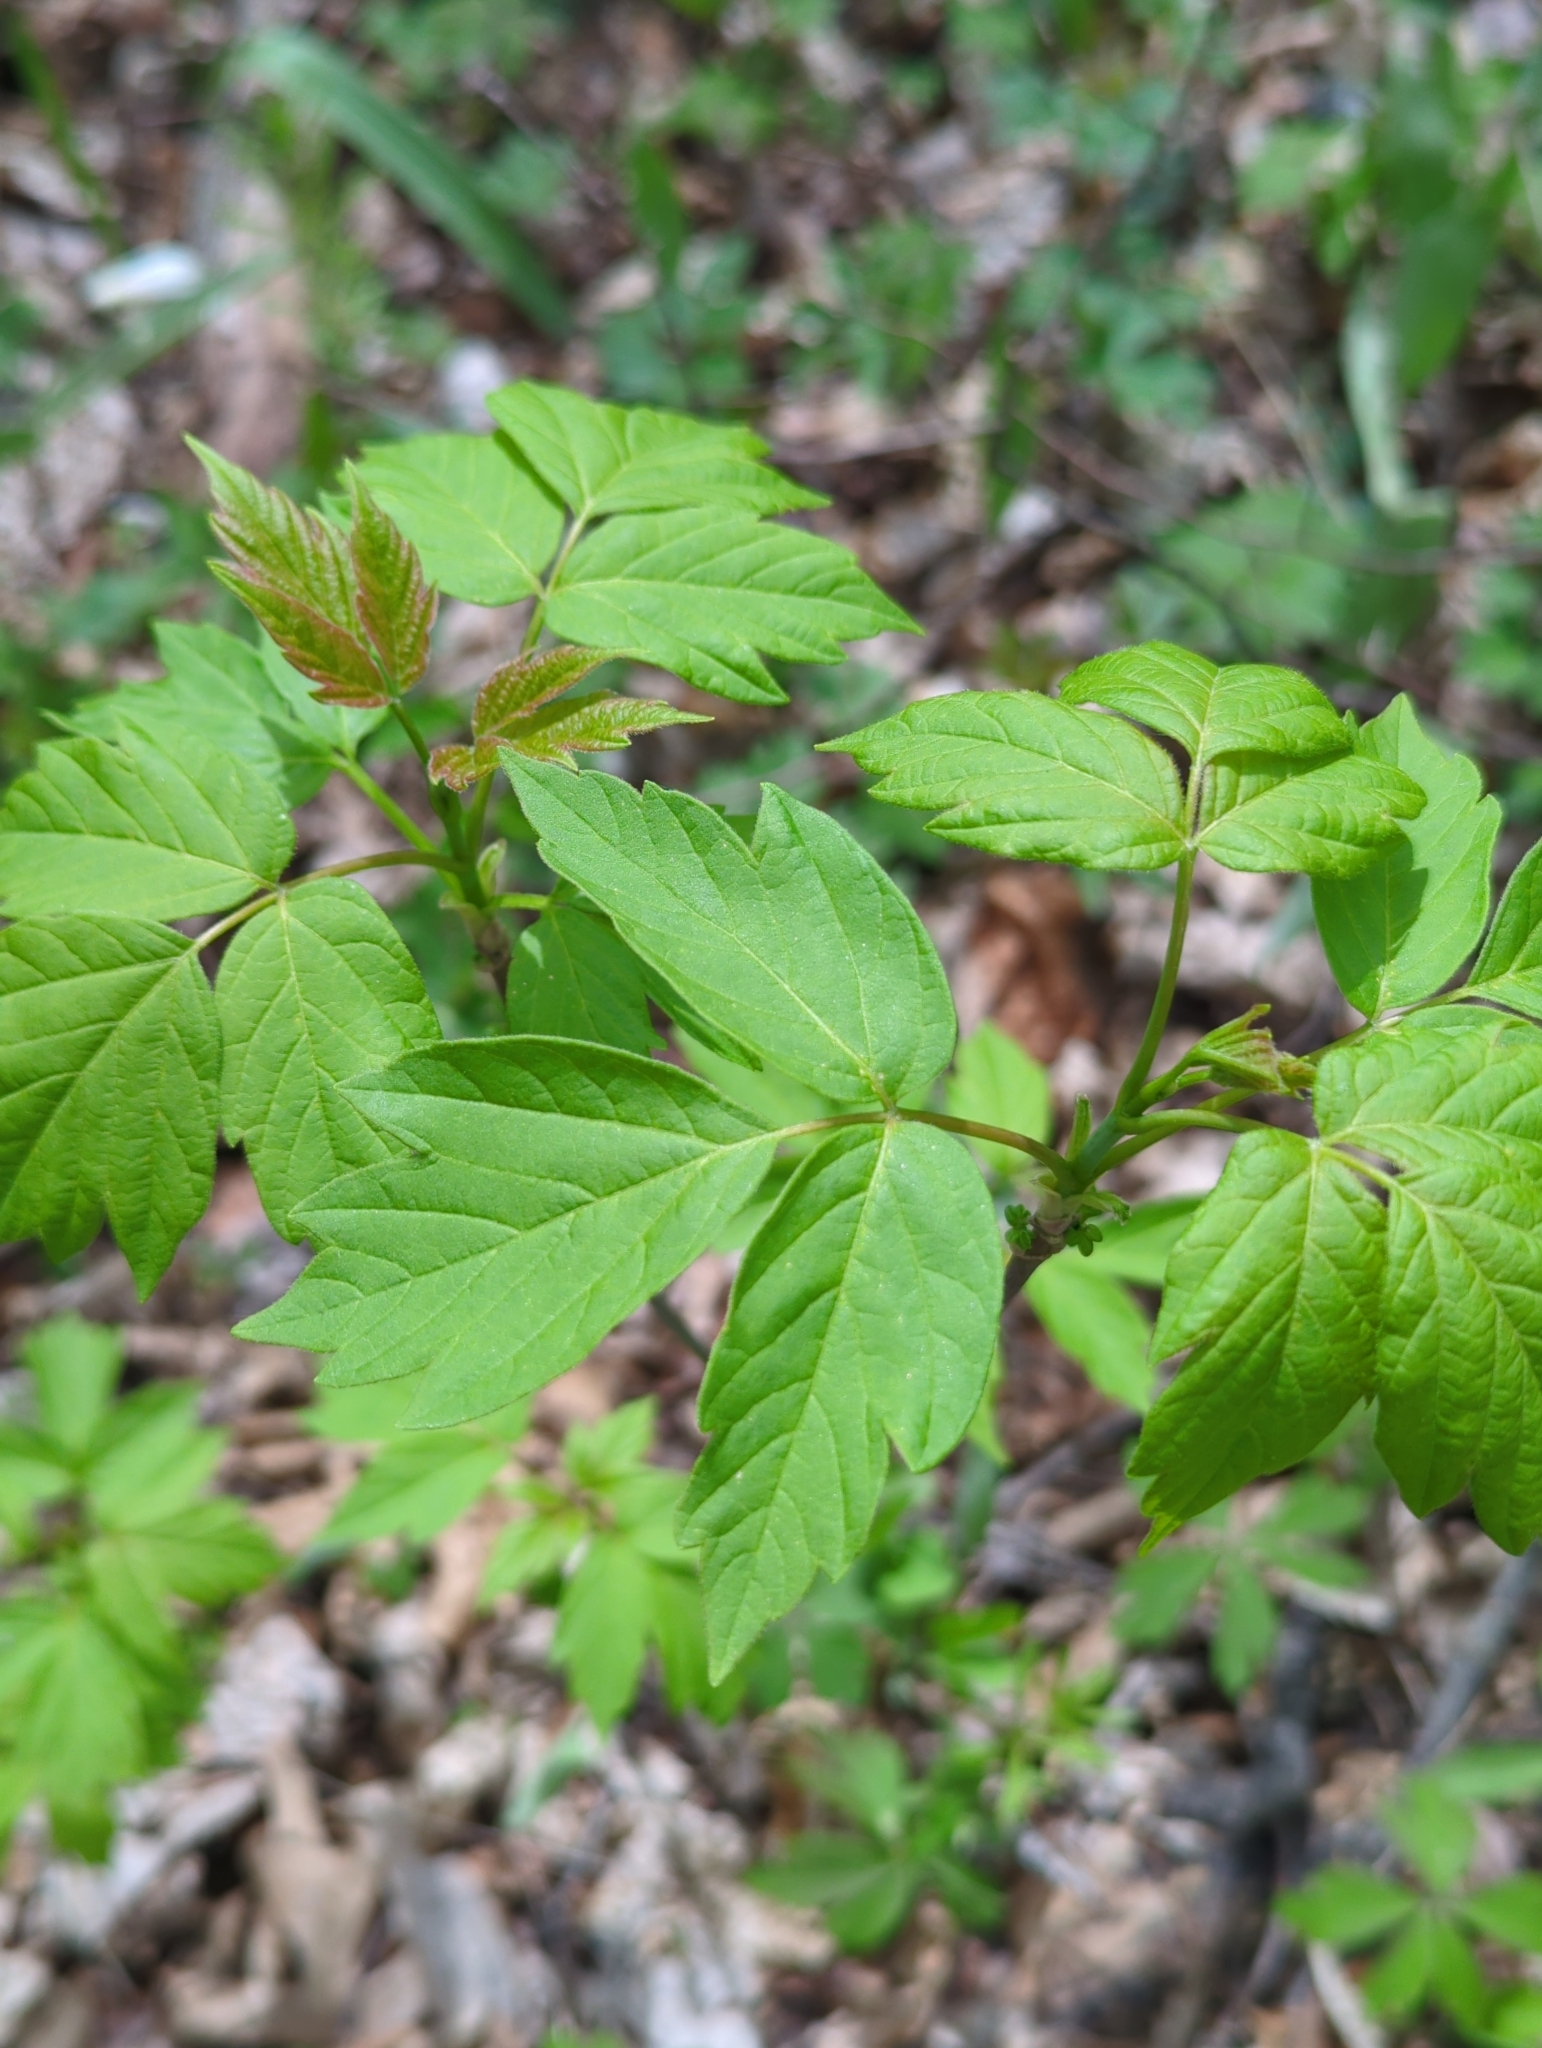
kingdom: Plantae
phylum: Tracheophyta
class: Magnoliopsida
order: Sapindales
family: Sapindaceae
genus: Acer
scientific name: Acer negundo
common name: Ashleaf maple
